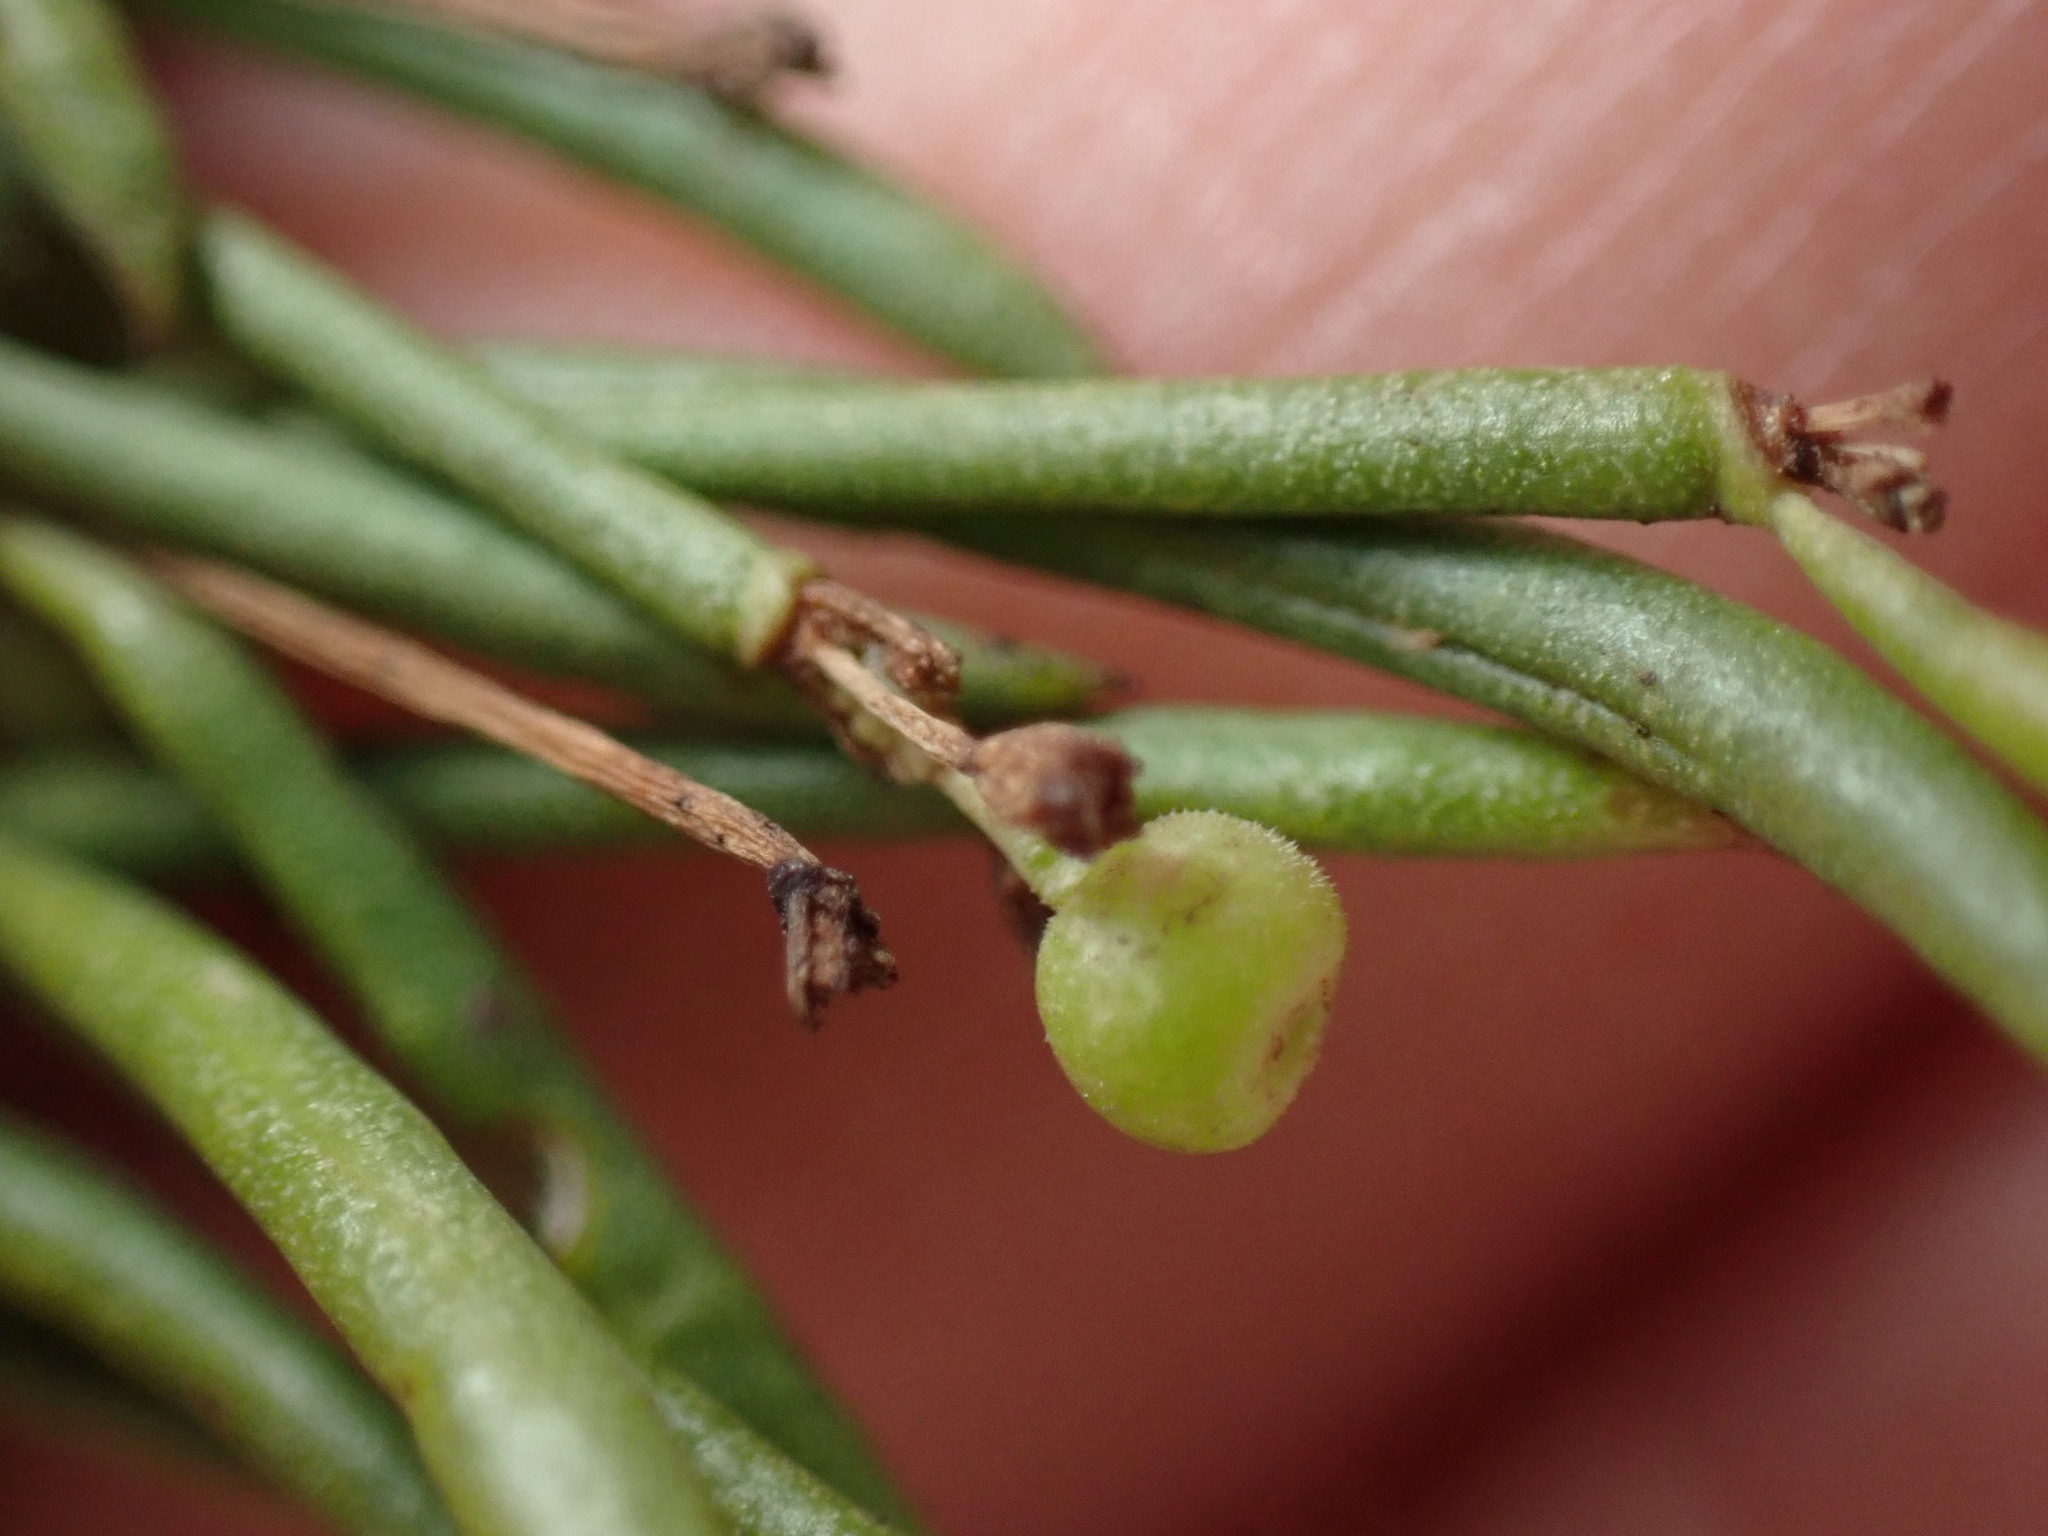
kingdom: Plantae
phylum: Tracheophyta
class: Magnoliopsida
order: Gentianales
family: Rubiaceae
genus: Plocama
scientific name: Plocama pendula
